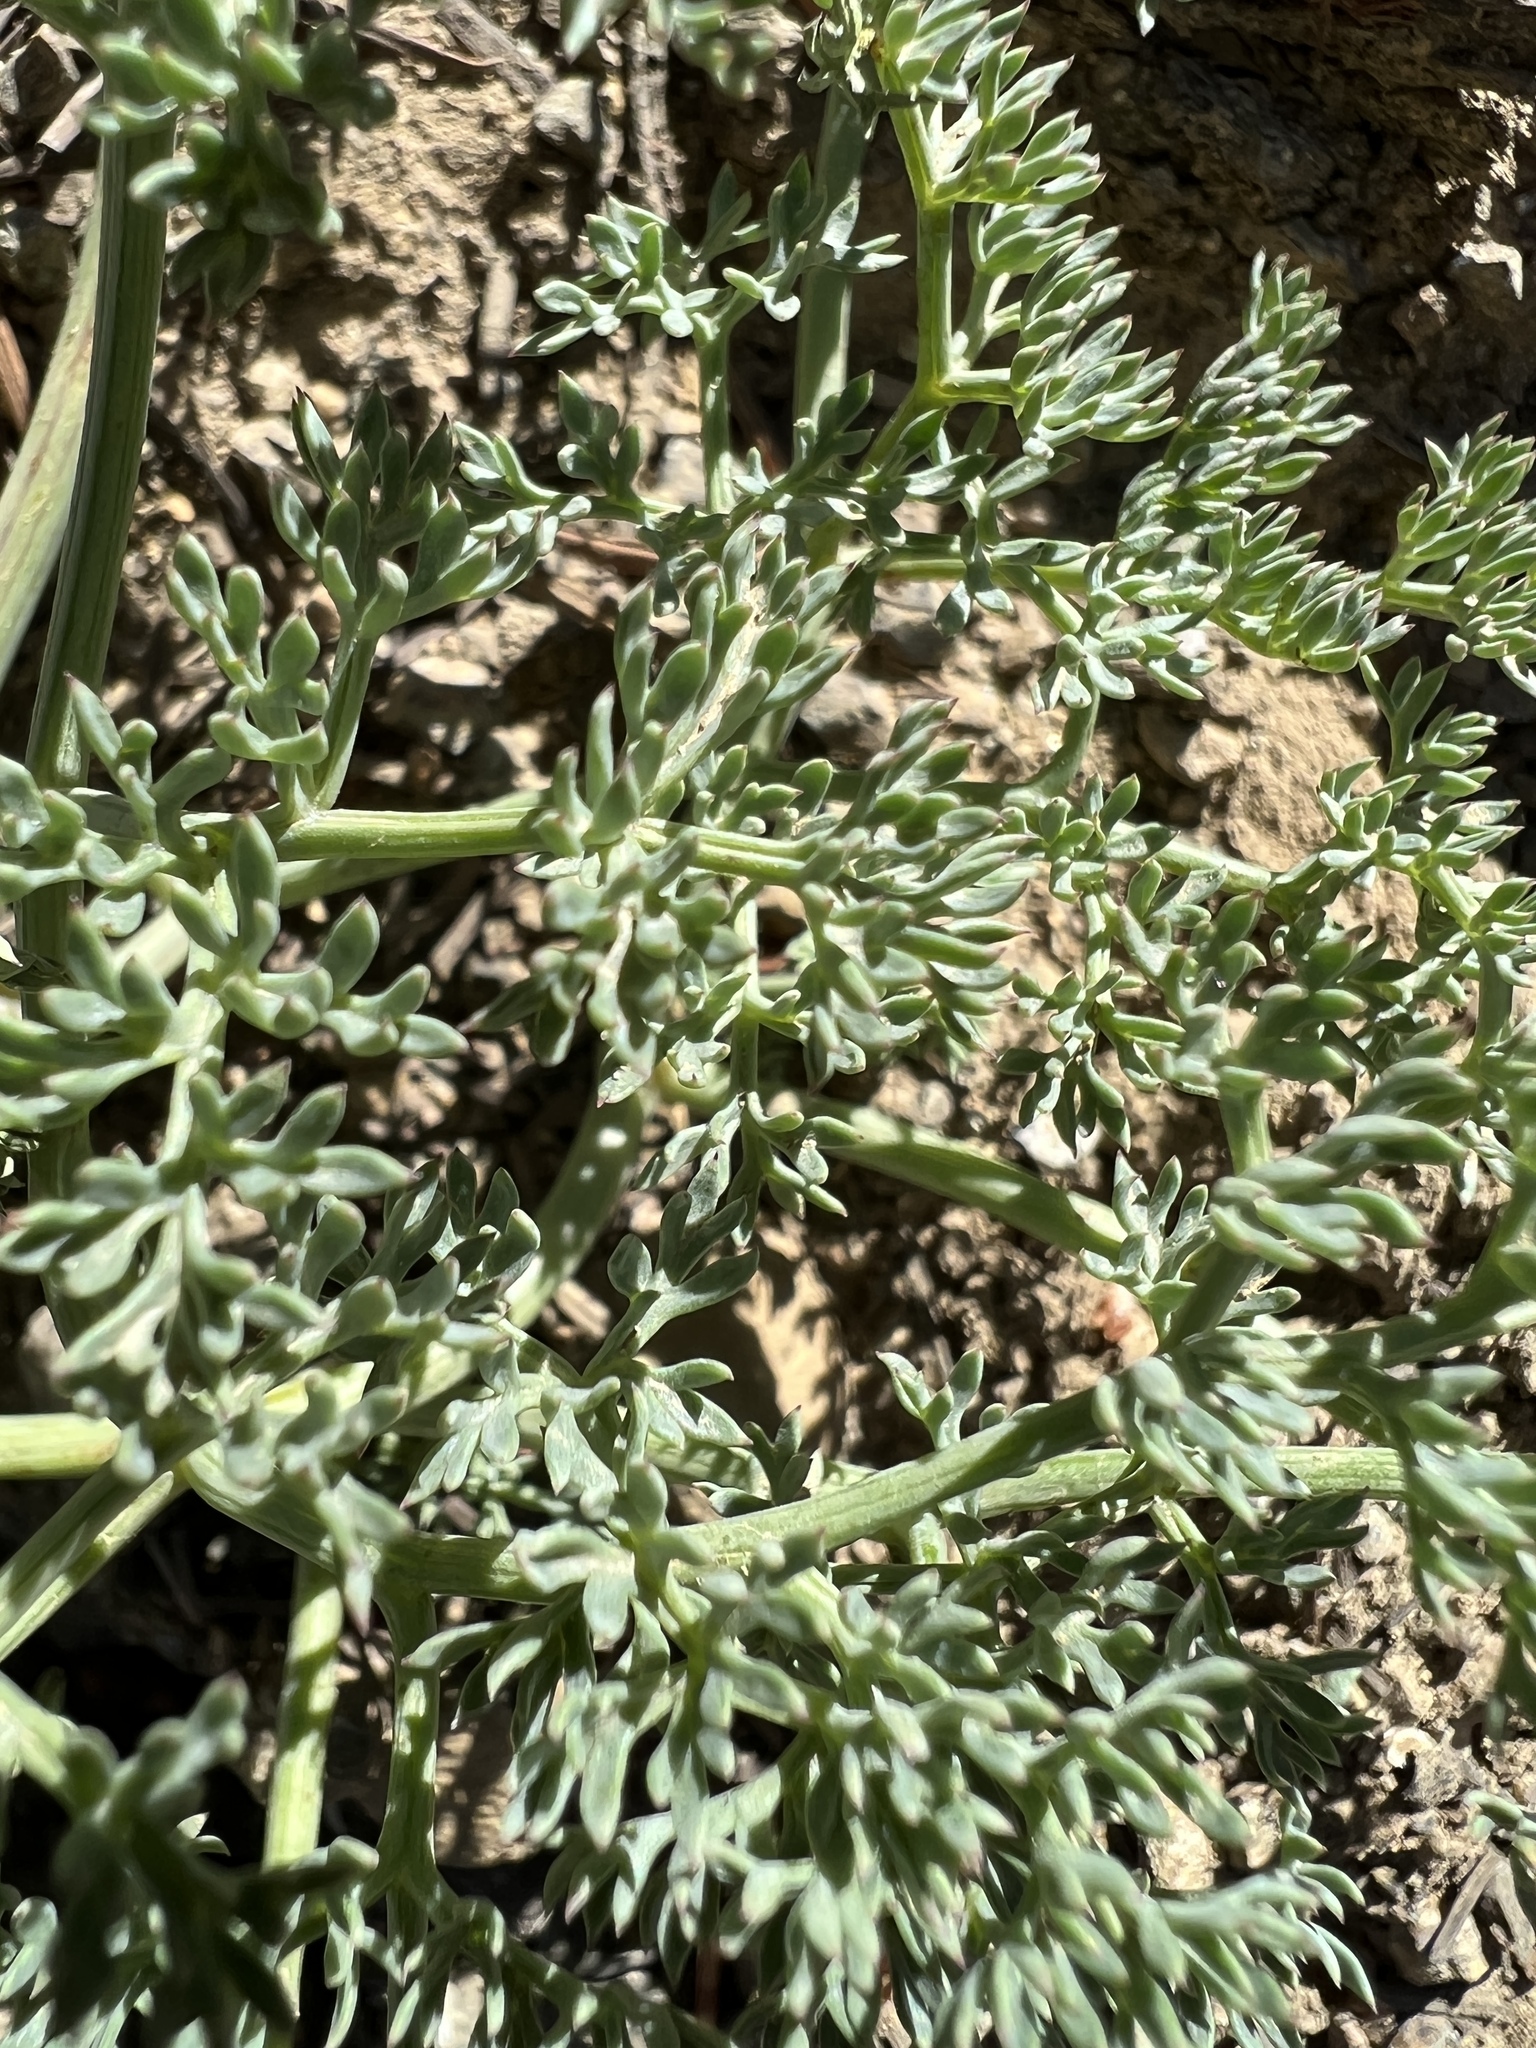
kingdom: Plantae
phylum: Tracheophyta
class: Magnoliopsida
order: Apiales
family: Apiaceae
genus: Lomatium
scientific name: Lomatium cuspidatum
